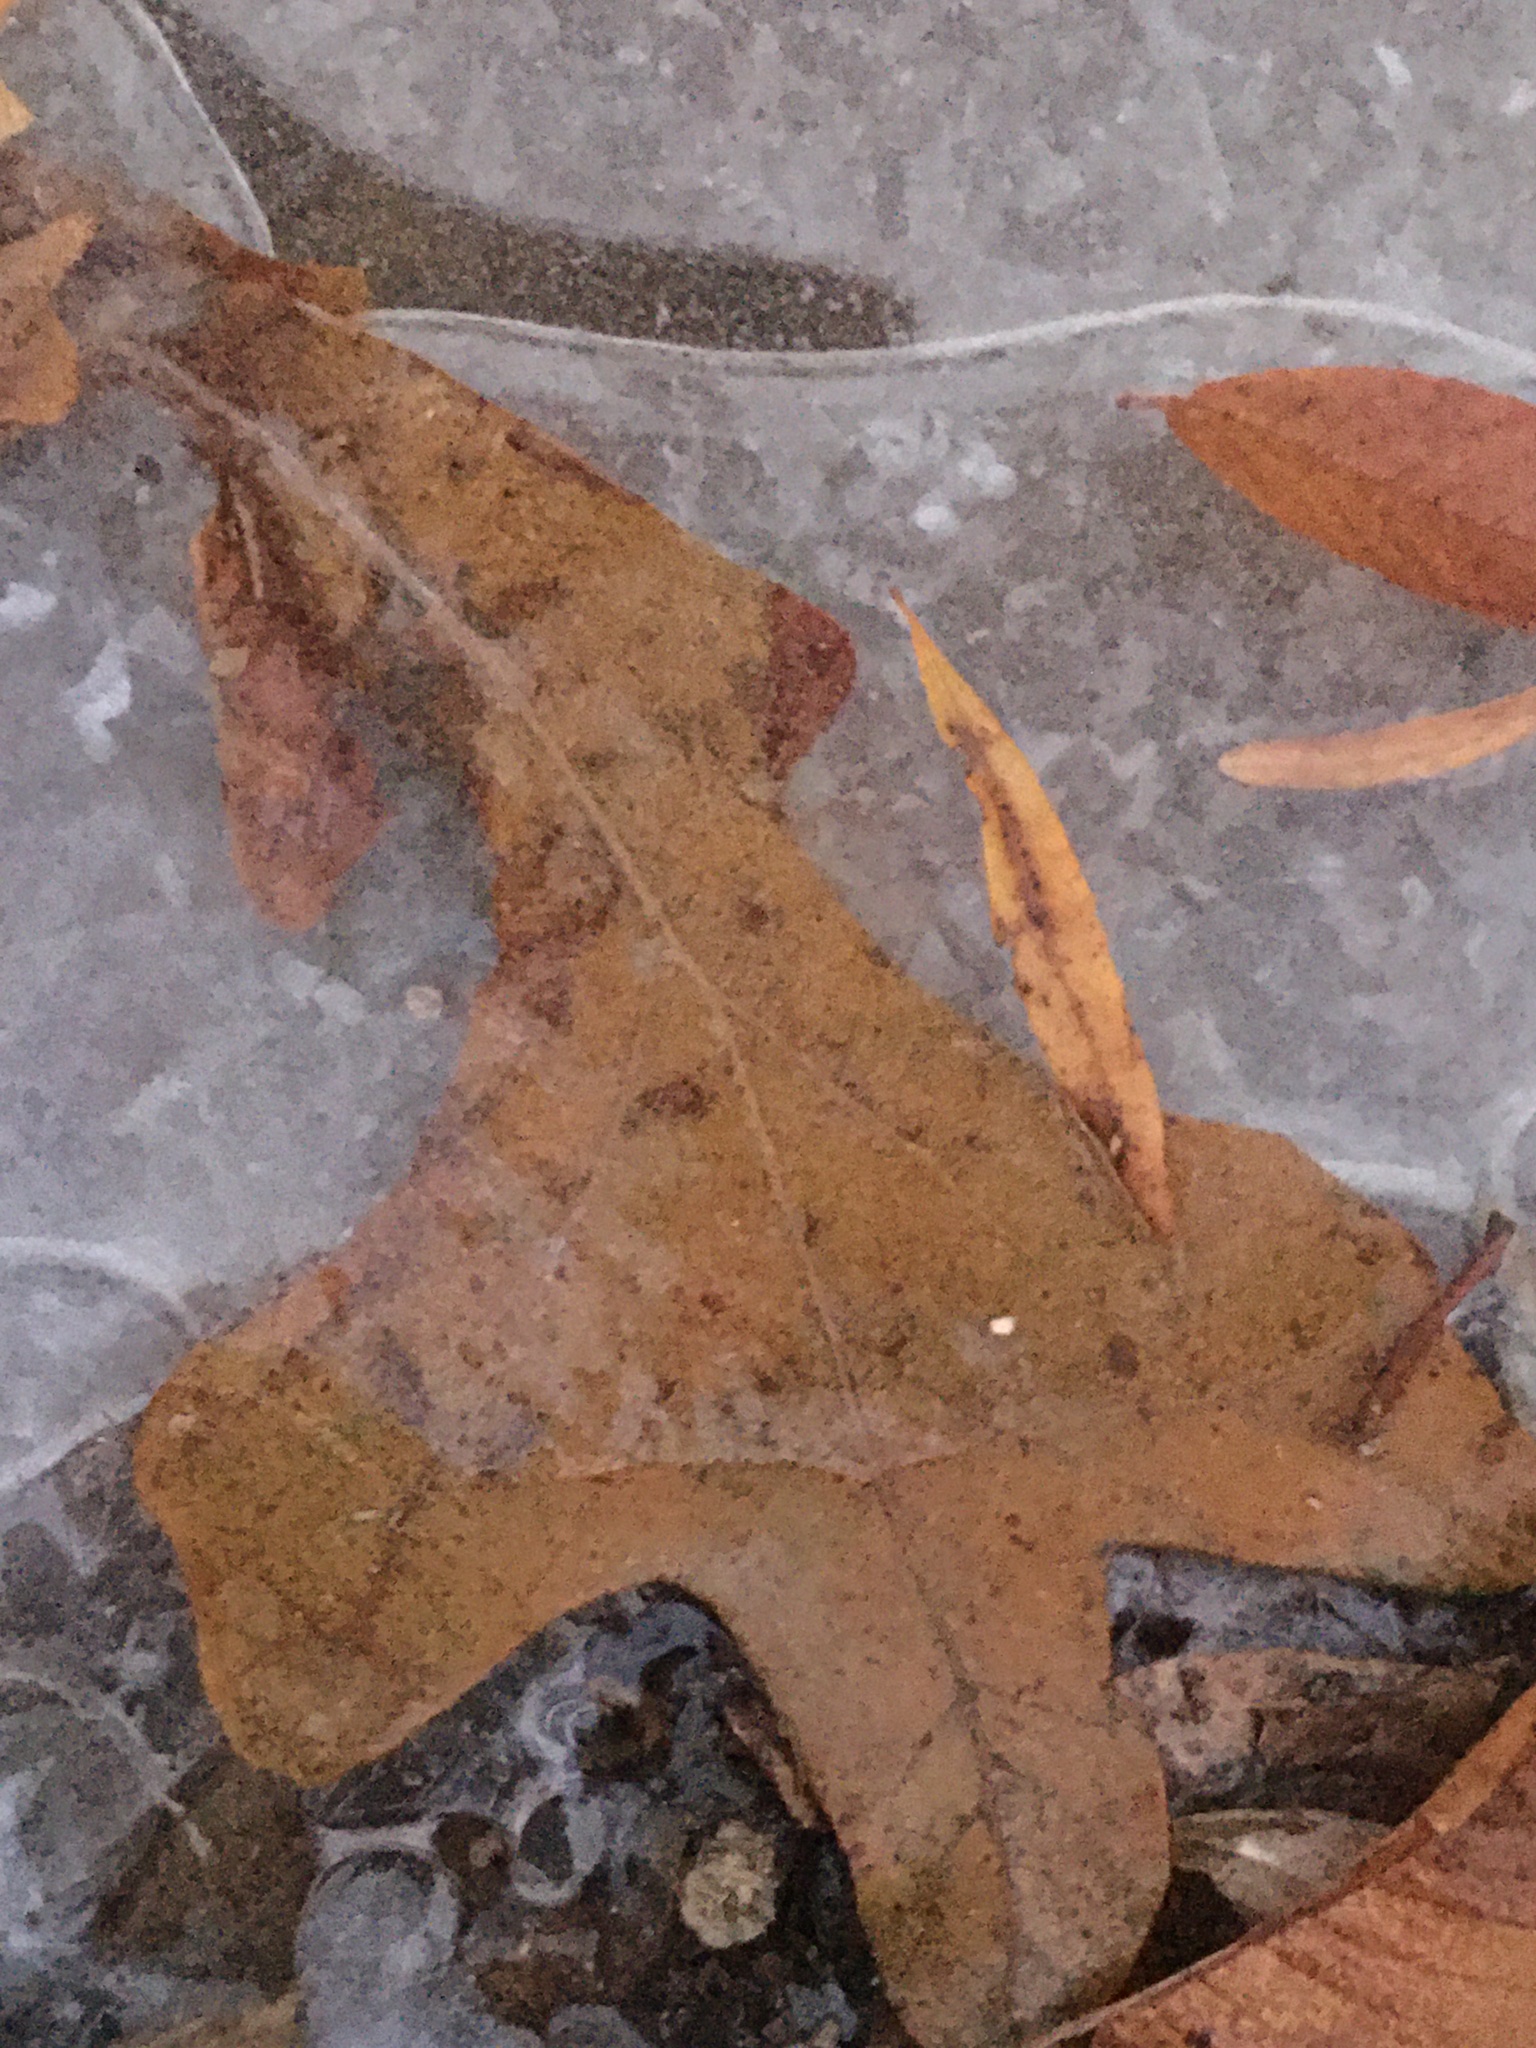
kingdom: Plantae
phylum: Tracheophyta
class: Magnoliopsida
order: Fagales
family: Fagaceae
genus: Quercus
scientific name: Quercus stellata
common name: Post oak
